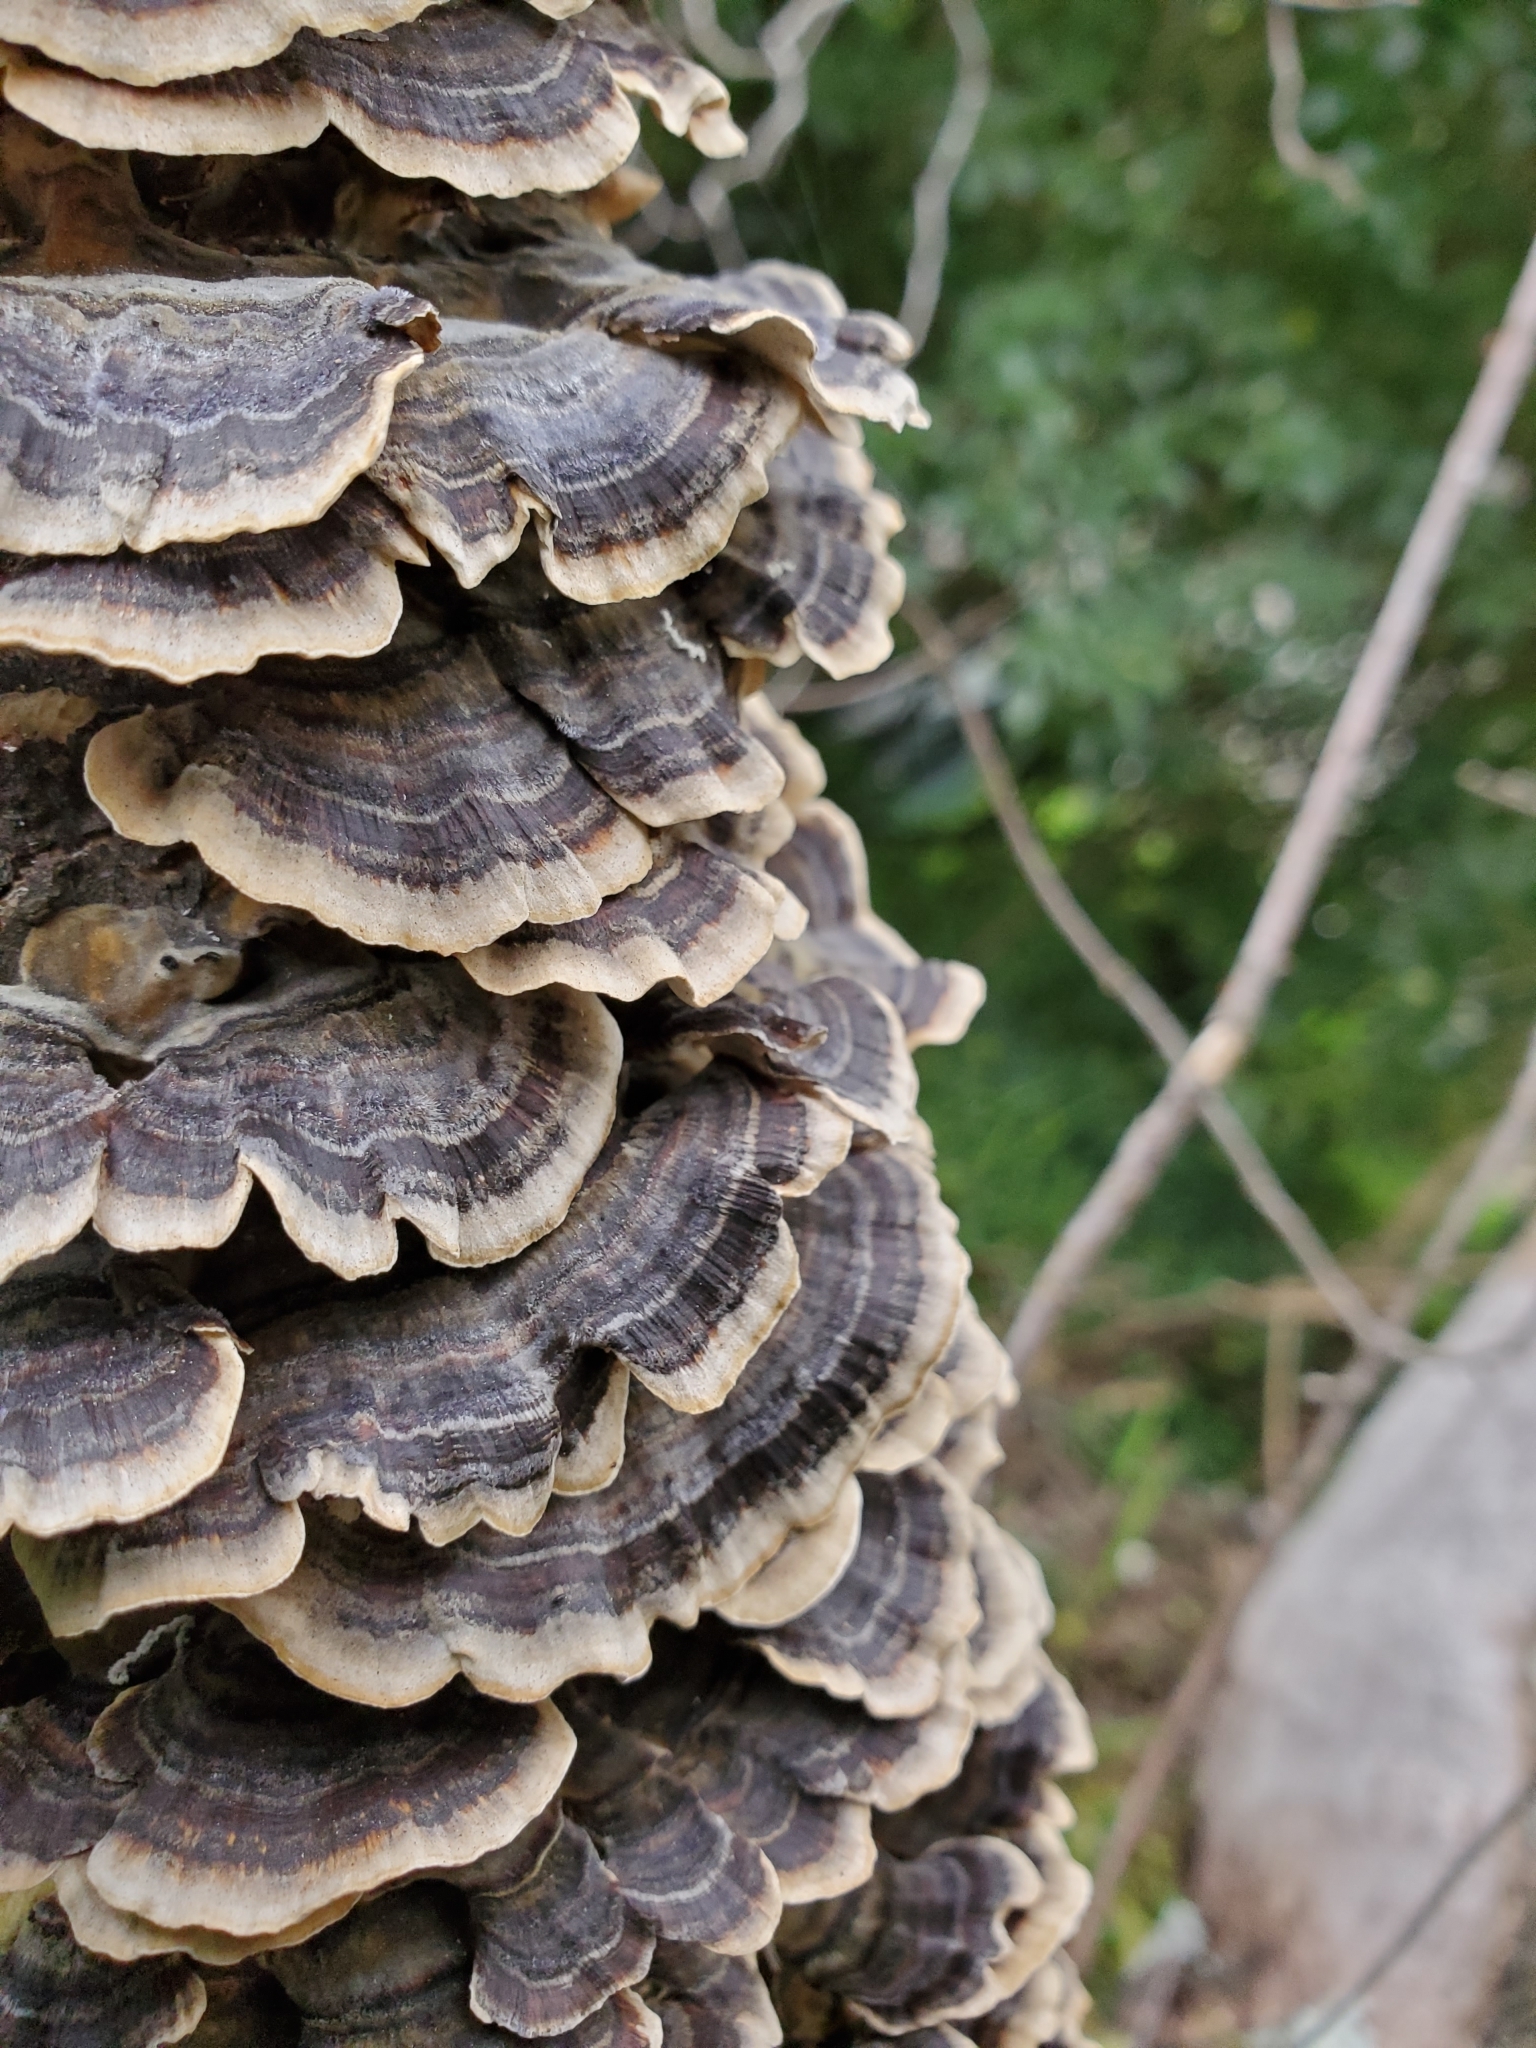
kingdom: Fungi
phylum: Basidiomycota
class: Agaricomycetes
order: Polyporales
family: Polyporaceae
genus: Trametes
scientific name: Trametes versicolor
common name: Turkeytail
